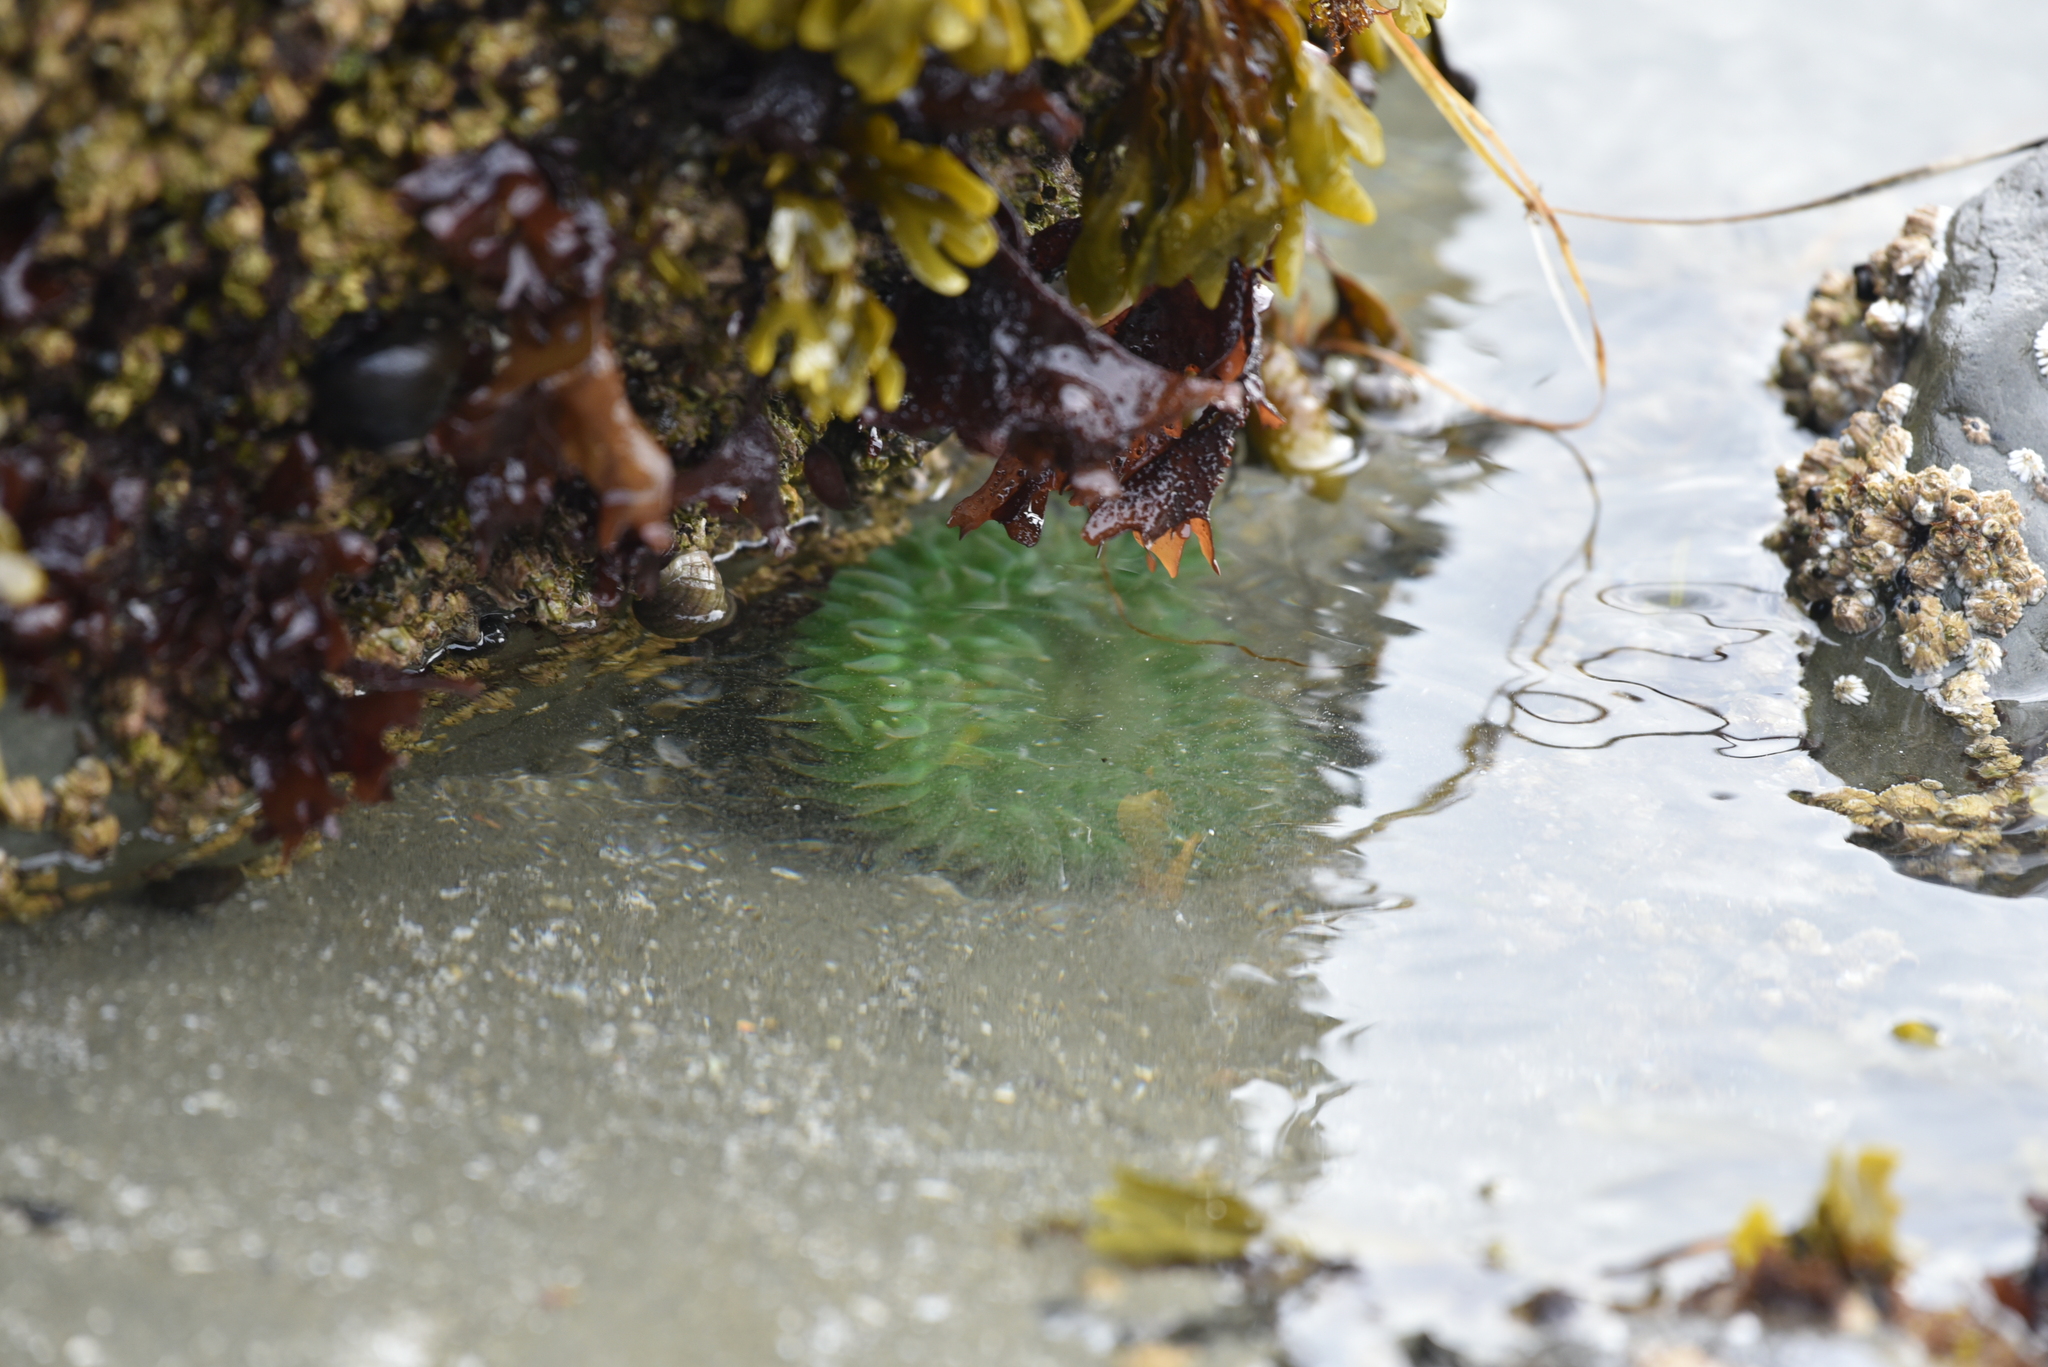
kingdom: Animalia
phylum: Cnidaria
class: Anthozoa
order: Actiniaria
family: Actiniidae
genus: Anthopleura
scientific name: Anthopleura xanthogrammica
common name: Giant green anemone
